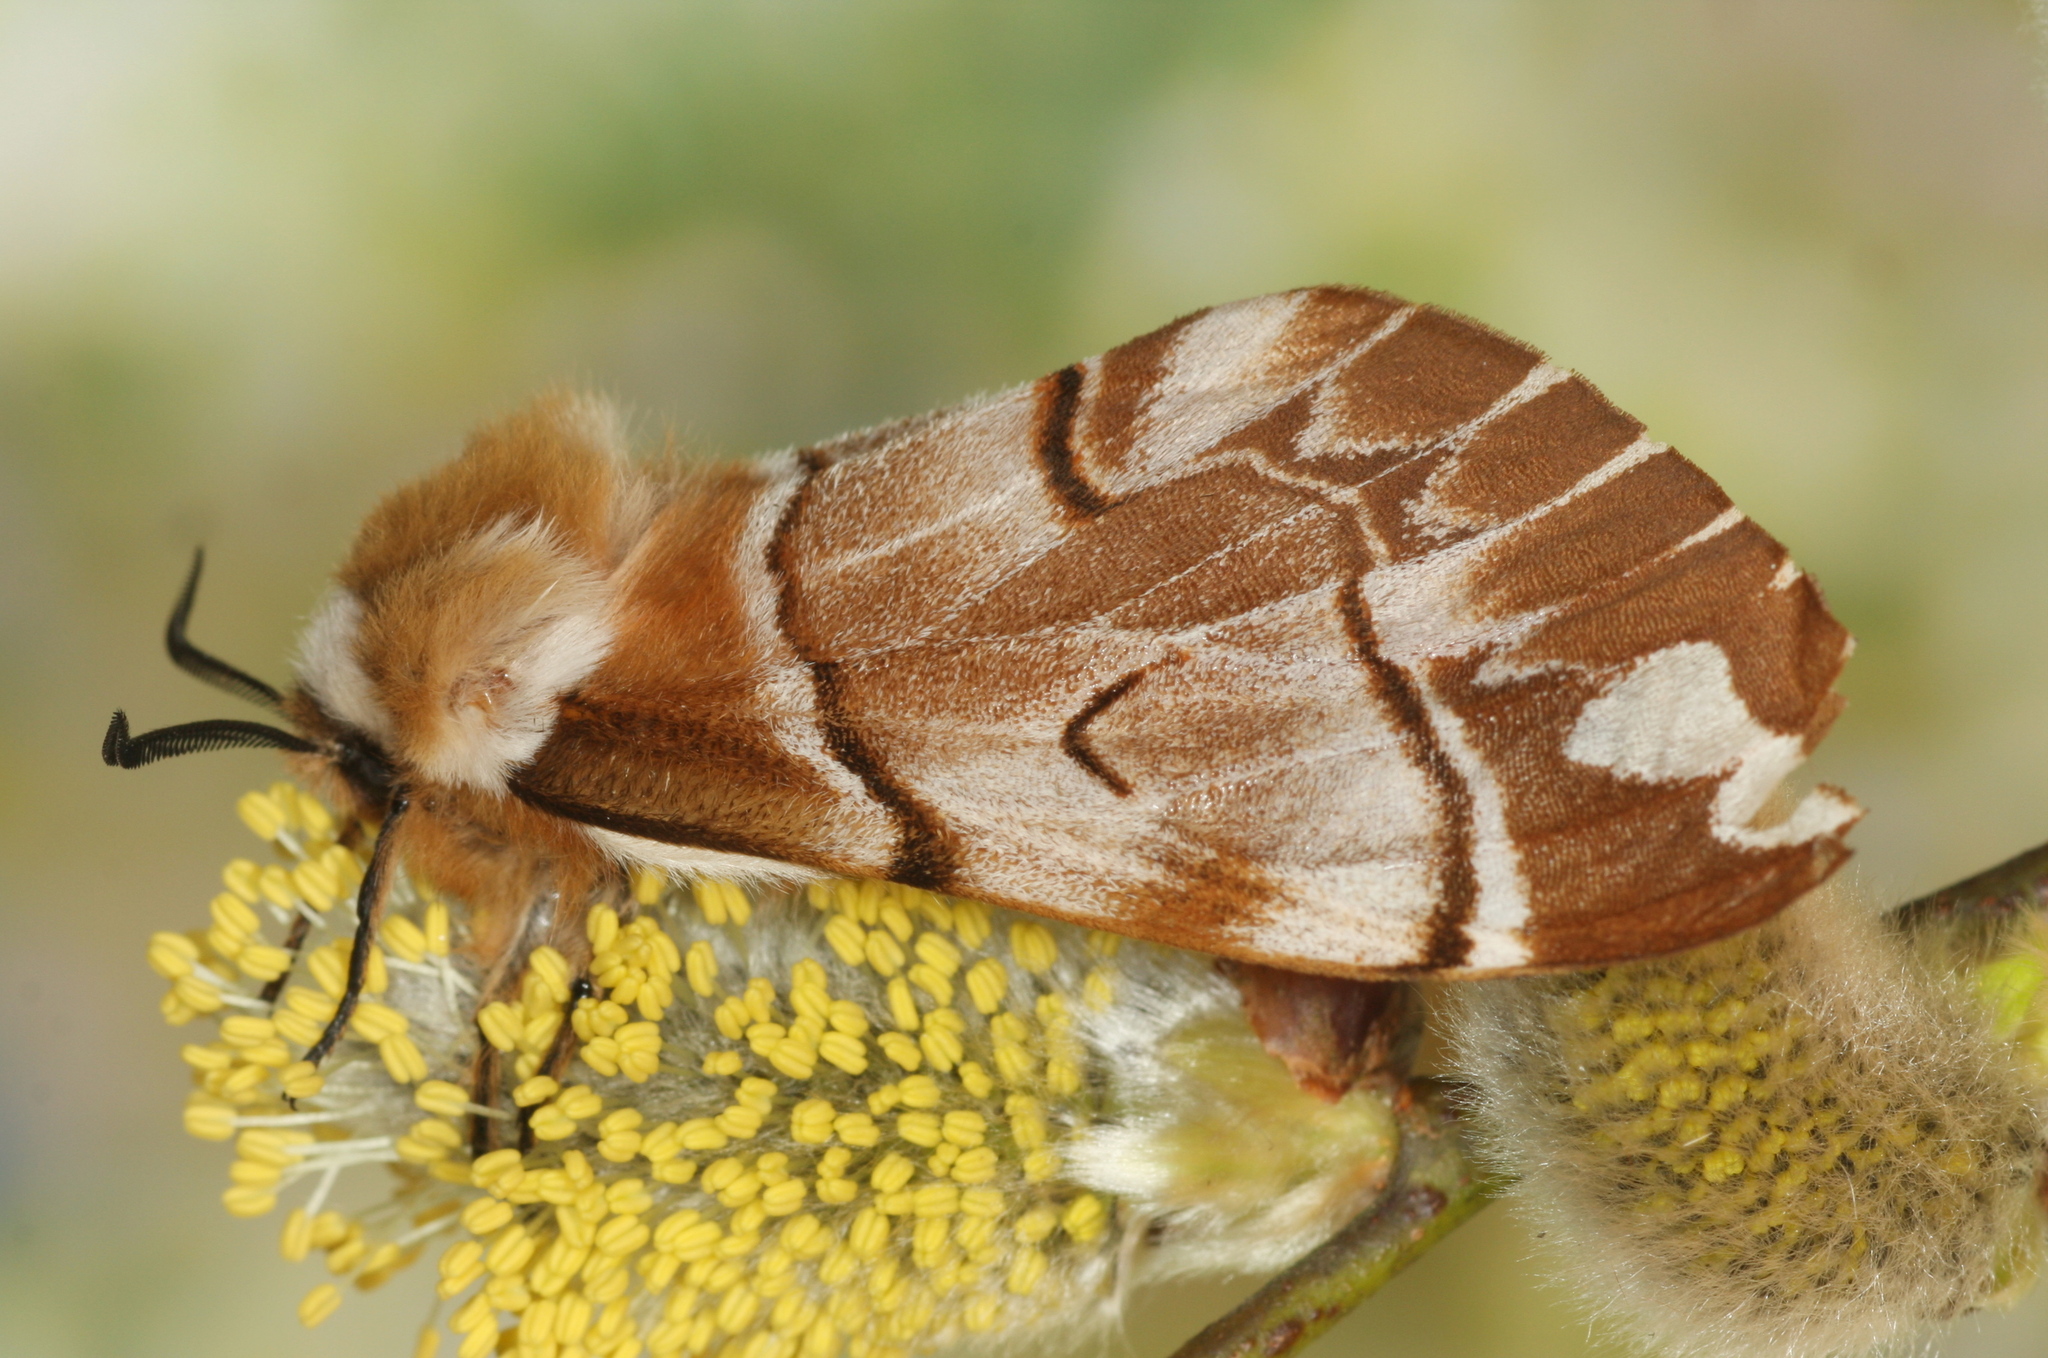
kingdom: Animalia
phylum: Arthropoda
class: Insecta
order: Lepidoptera
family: Endromidae
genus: Endromis
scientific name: Endromis versicolora
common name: Kentish glory
